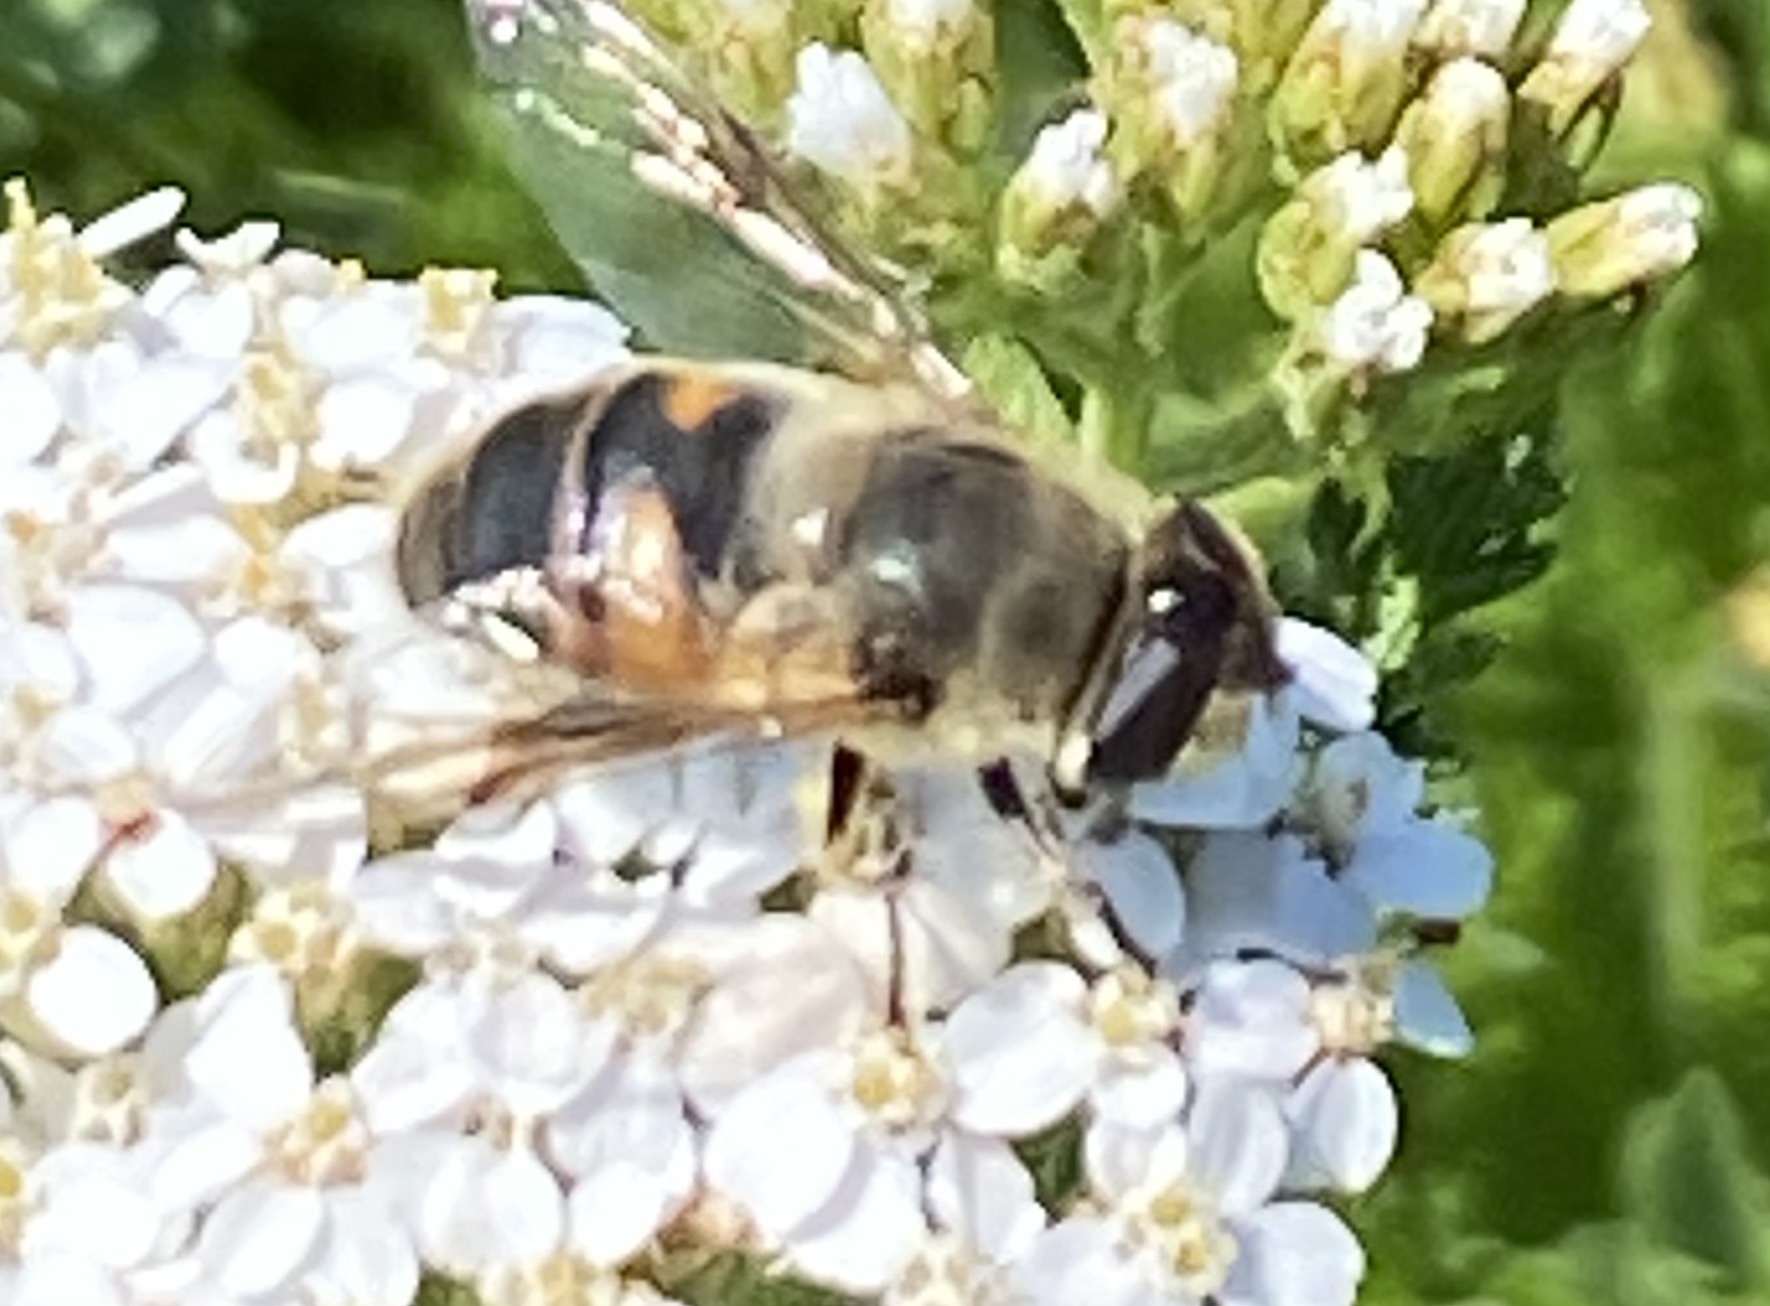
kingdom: Animalia
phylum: Arthropoda
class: Insecta
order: Diptera
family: Syrphidae
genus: Eristalis
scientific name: Eristalis tenax
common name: Drone fly
